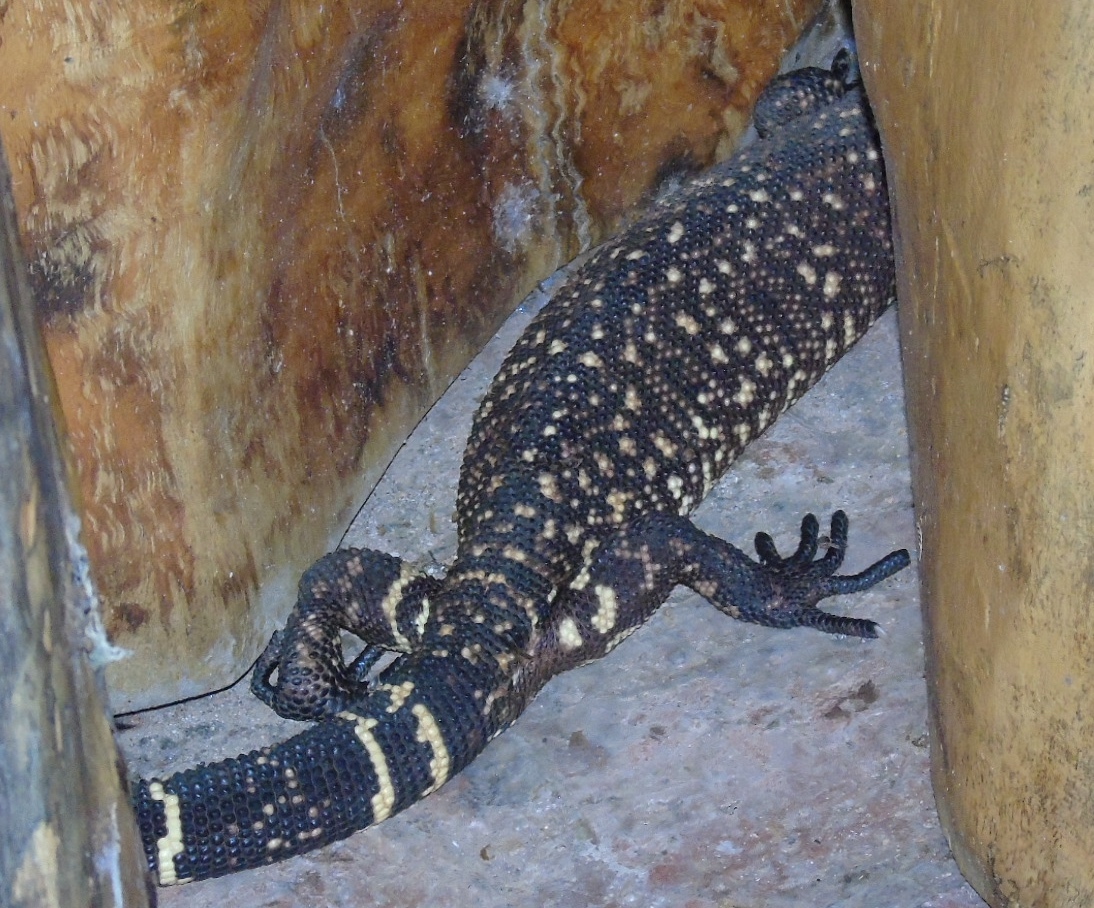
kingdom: Animalia
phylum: Chordata
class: Squamata
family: Helodermatidae
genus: Heloderma
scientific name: Heloderma horridum
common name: Mexican beaded lizard
